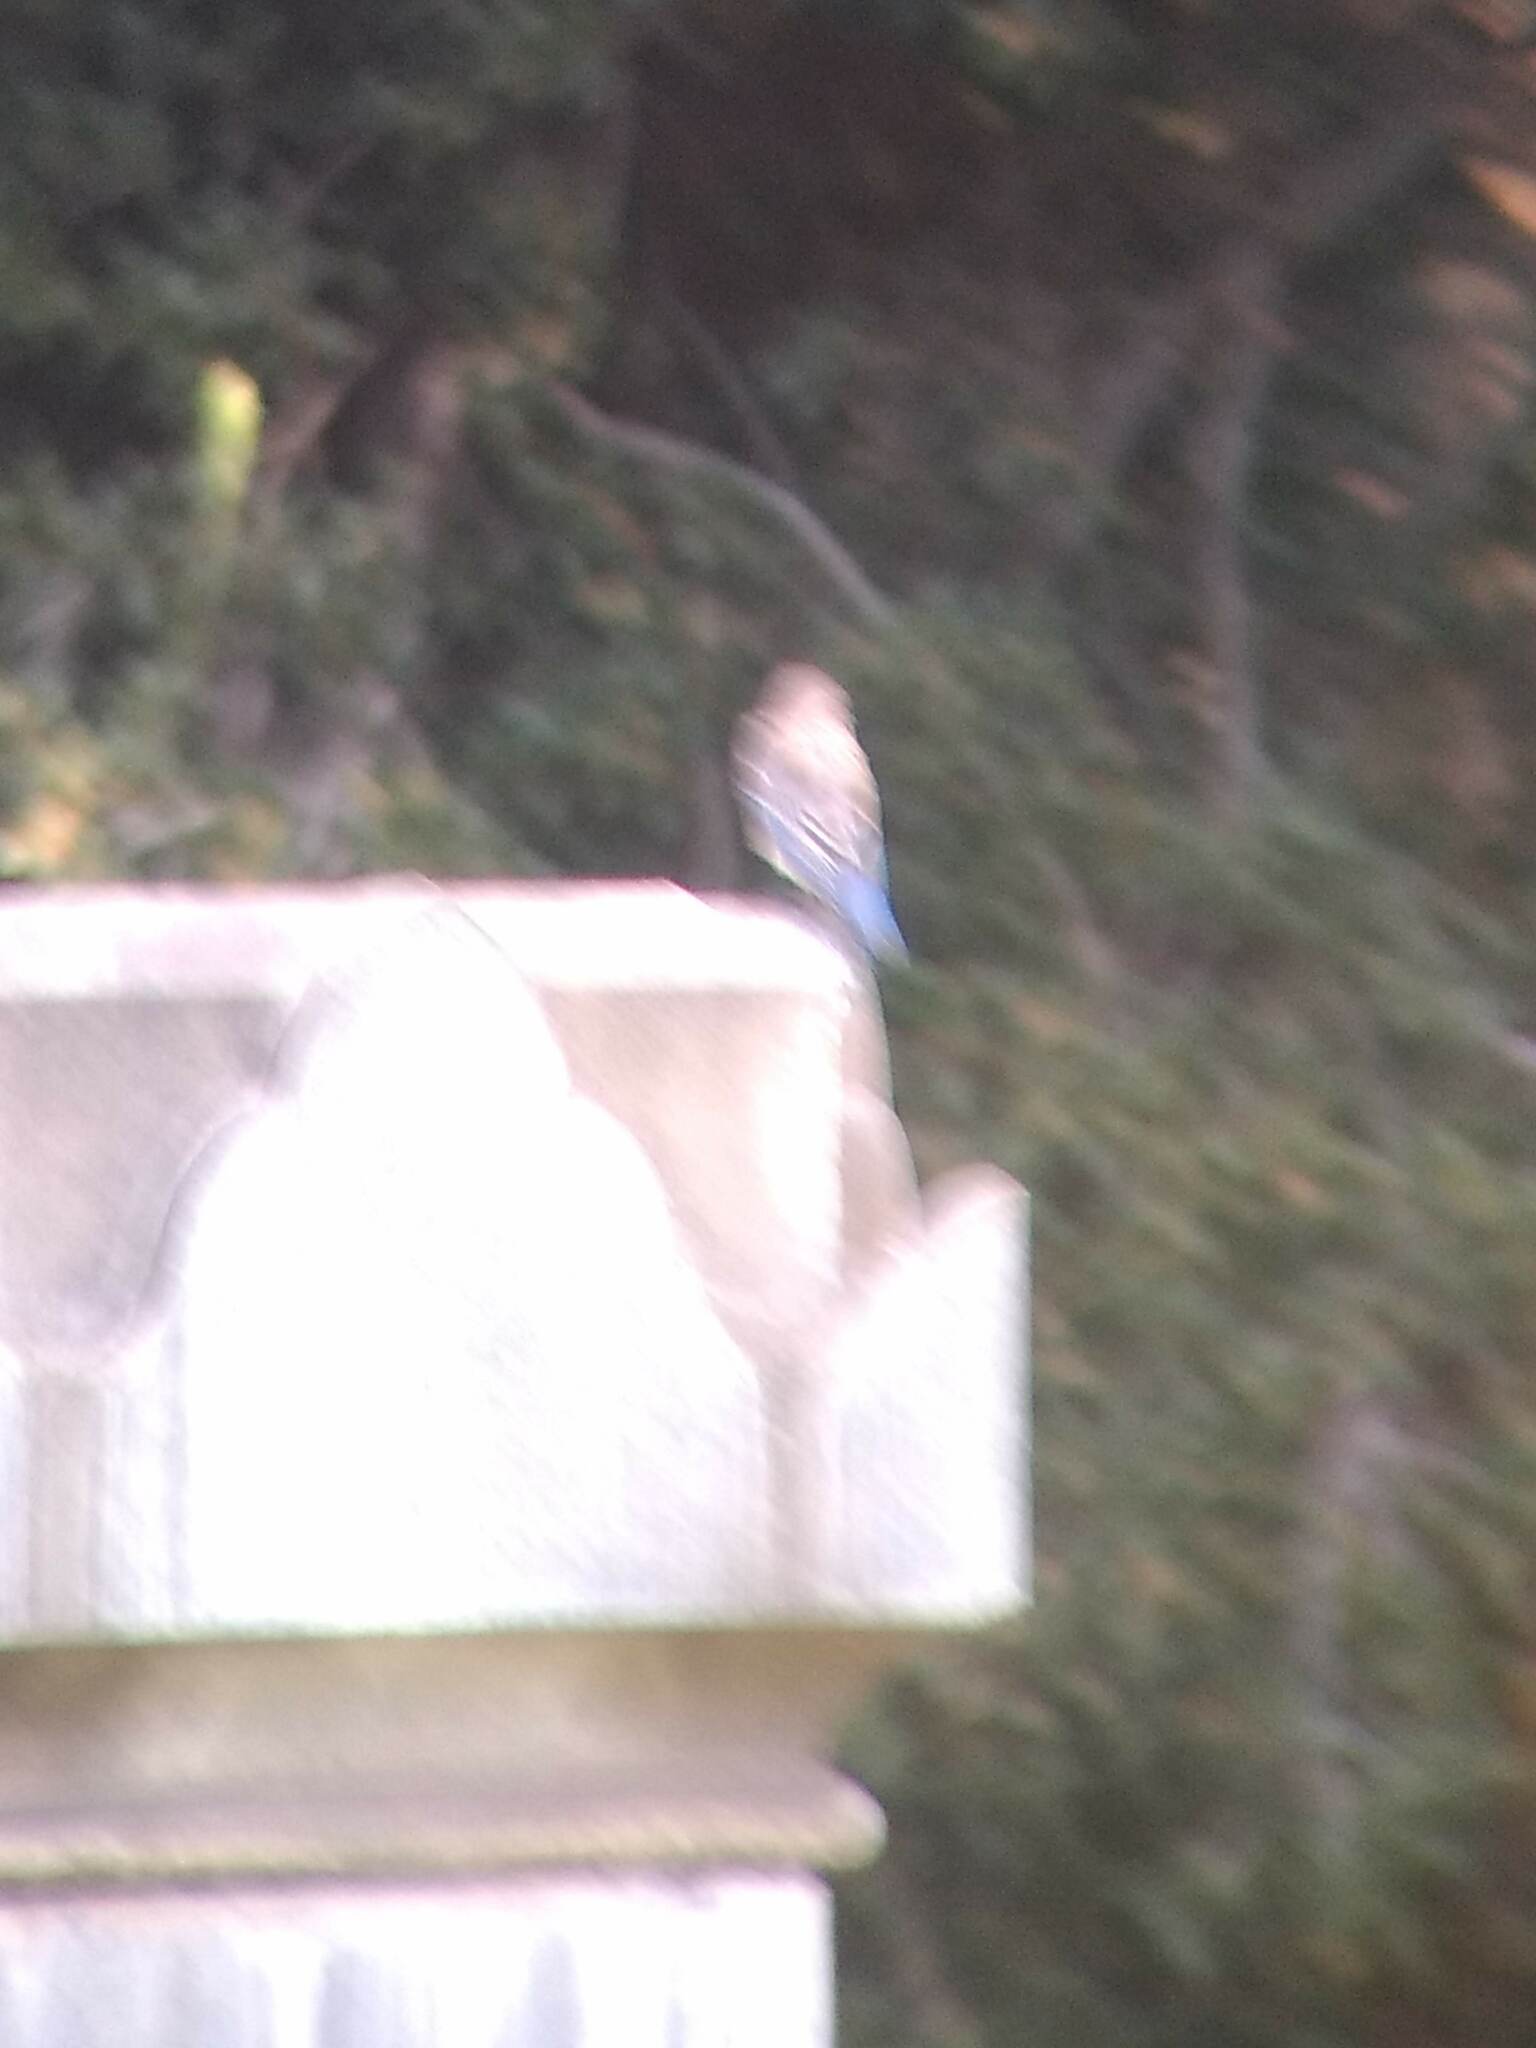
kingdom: Animalia
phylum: Chordata
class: Aves
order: Passeriformes
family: Turdidae
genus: Sialia
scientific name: Sialia mexicana
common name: Western bluebird
